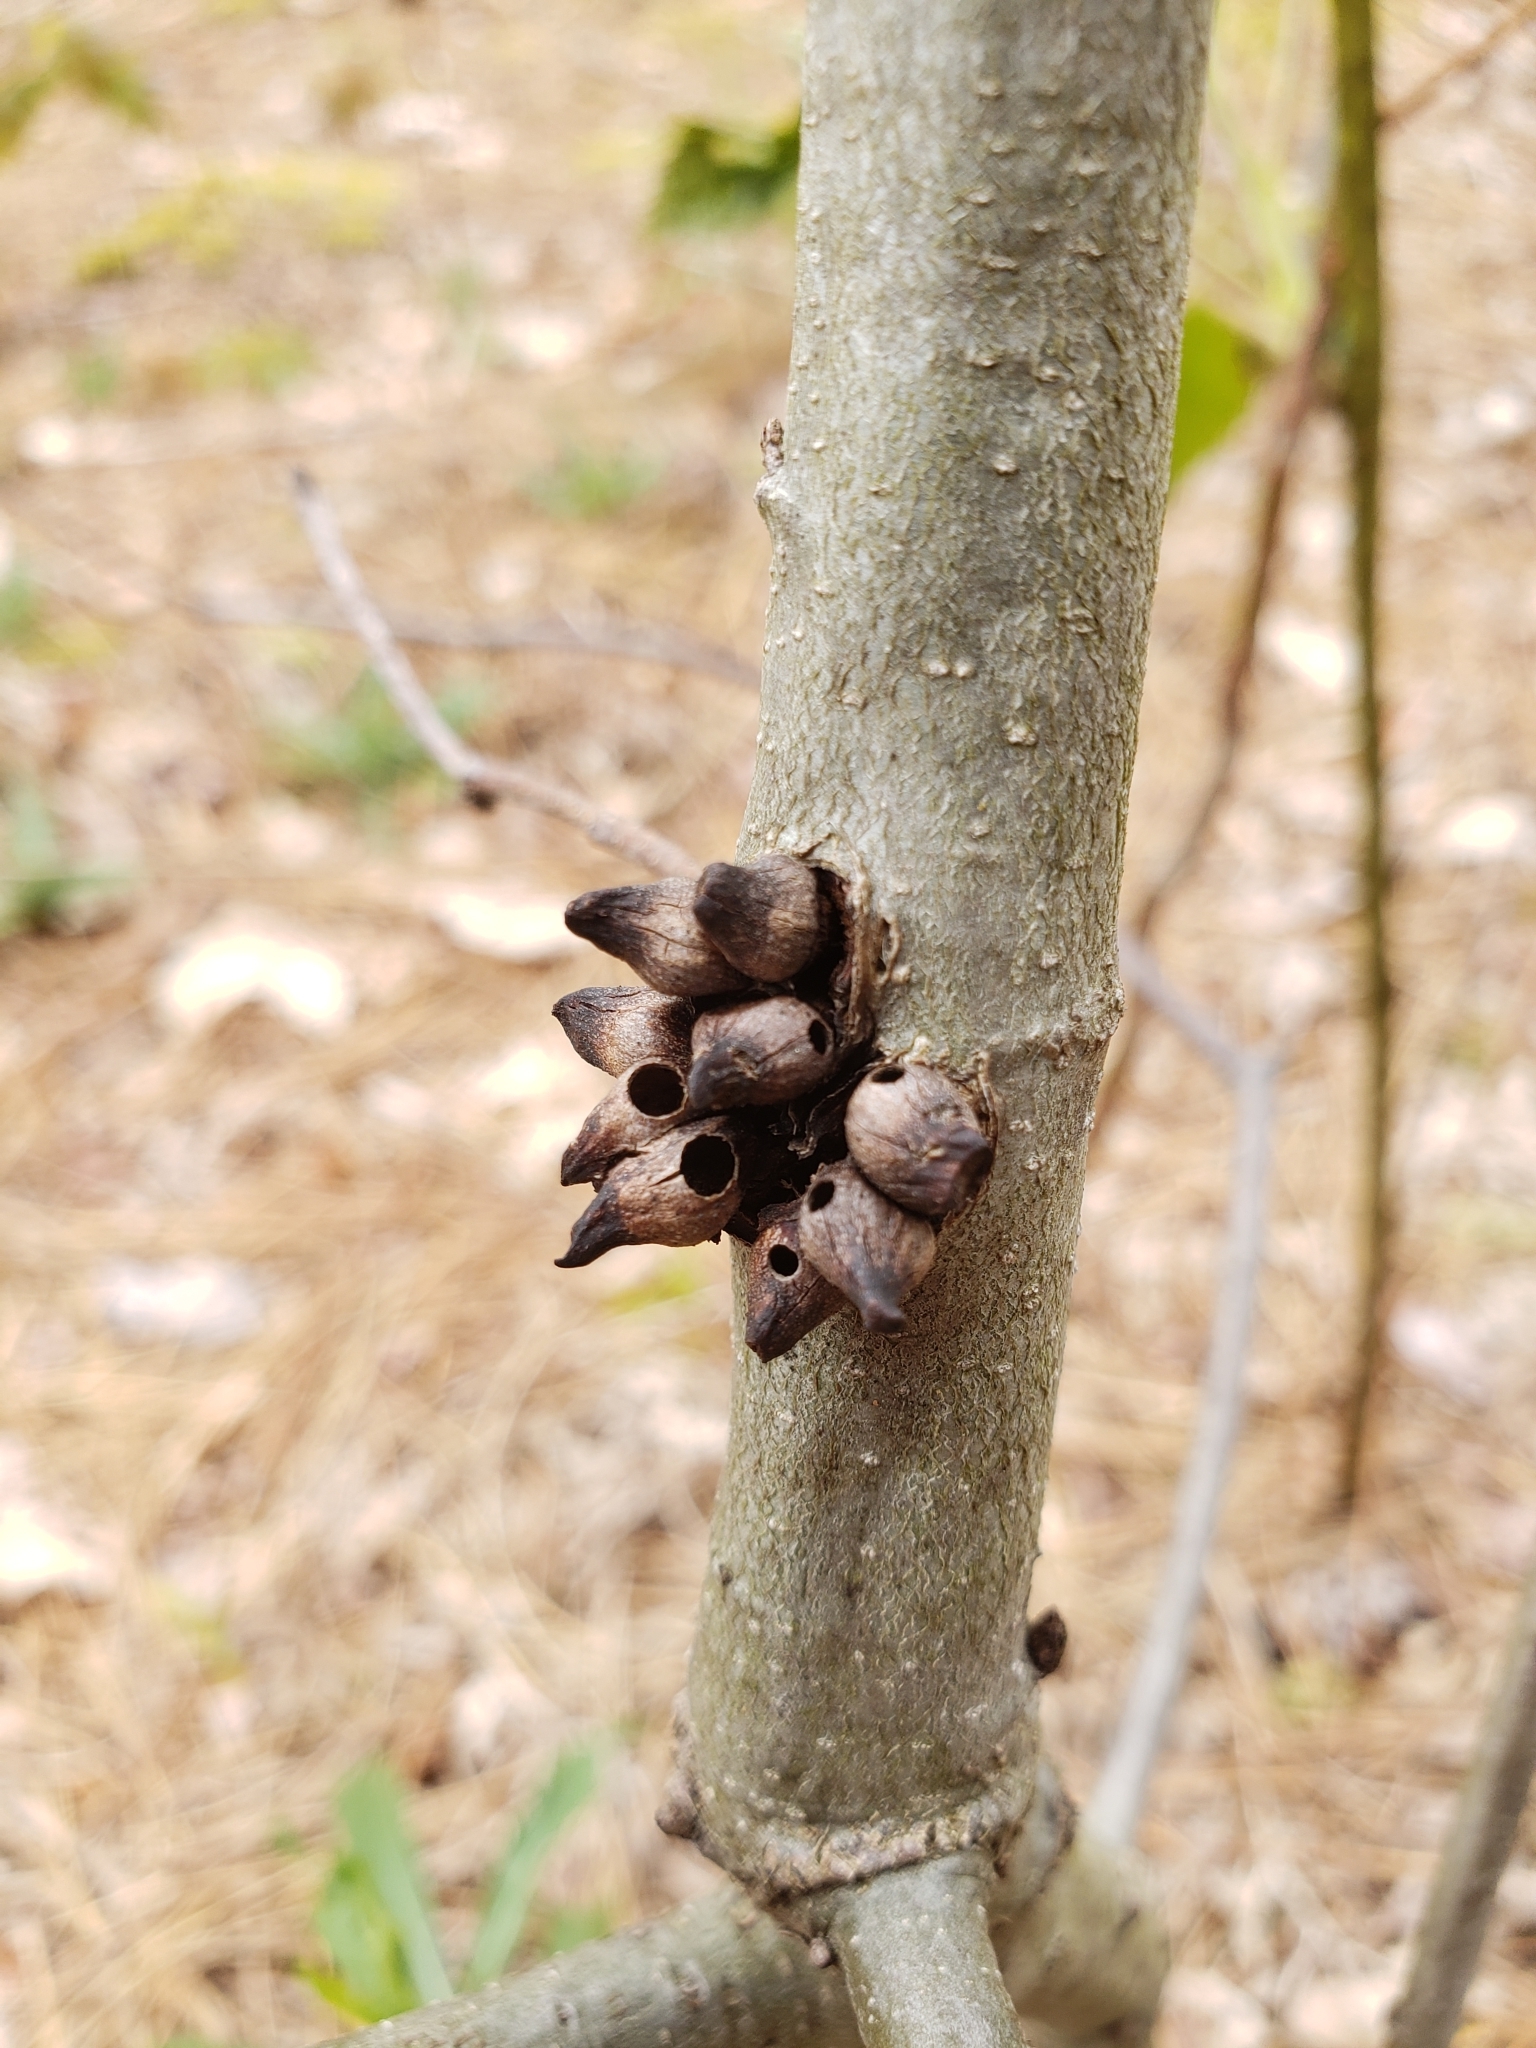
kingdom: Animalia
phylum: Arthropoda
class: Insecta
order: Hymenoptera
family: Cynipidae
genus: Biorhiza
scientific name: Biorhiza
